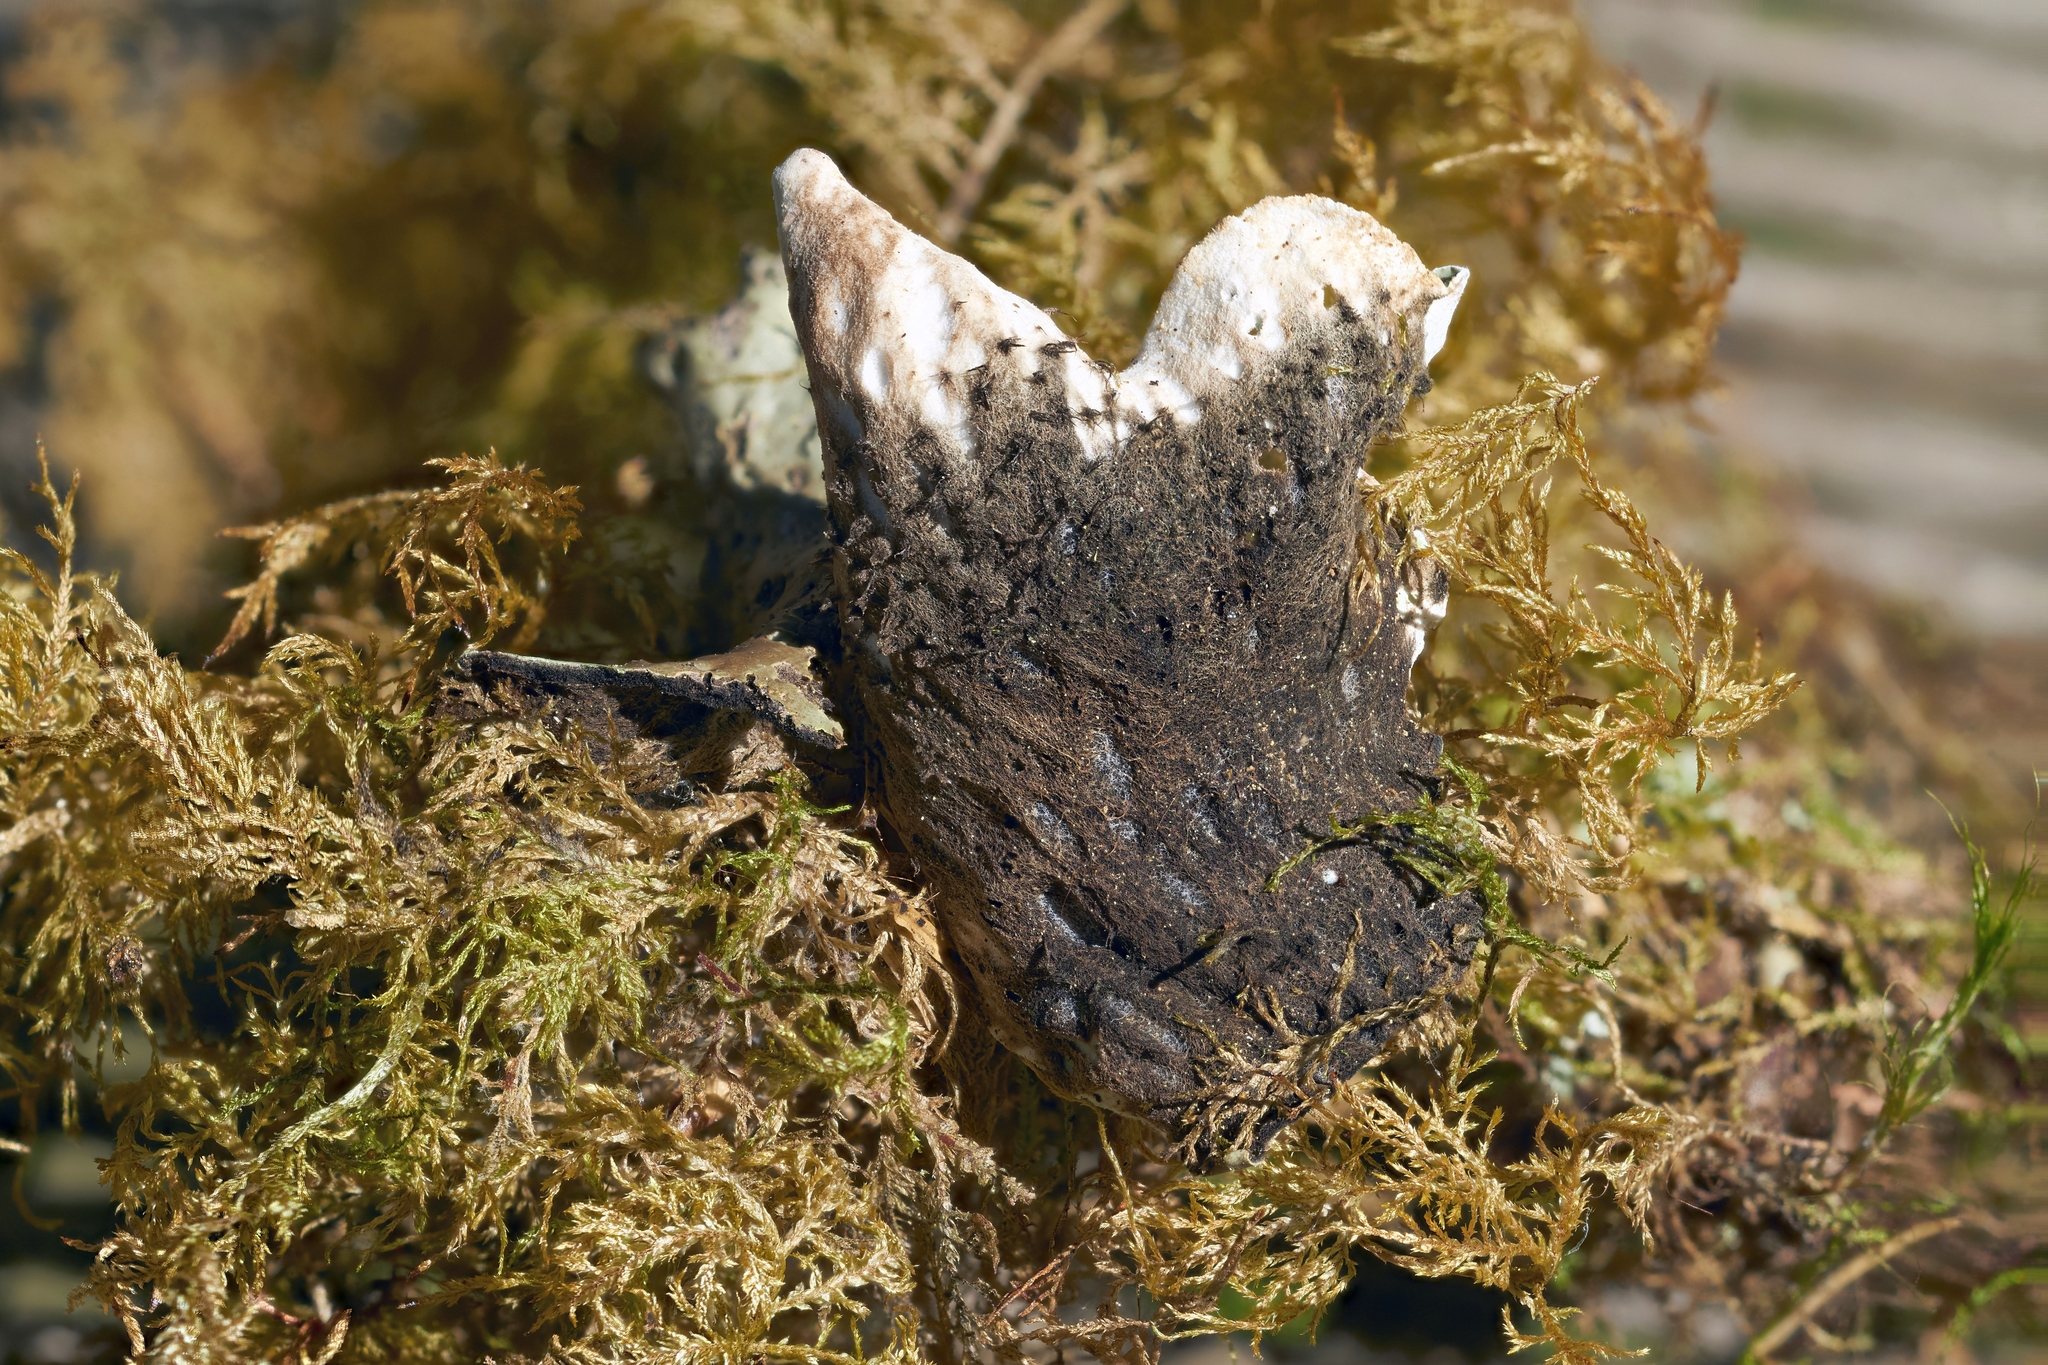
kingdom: Fungi
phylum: Ascomycota
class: Lecanoromycetes
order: Peltigerales
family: Peltigeraceae
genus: Peltigera
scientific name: Peltigera aphthosa
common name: Common freckle pelt lichen
